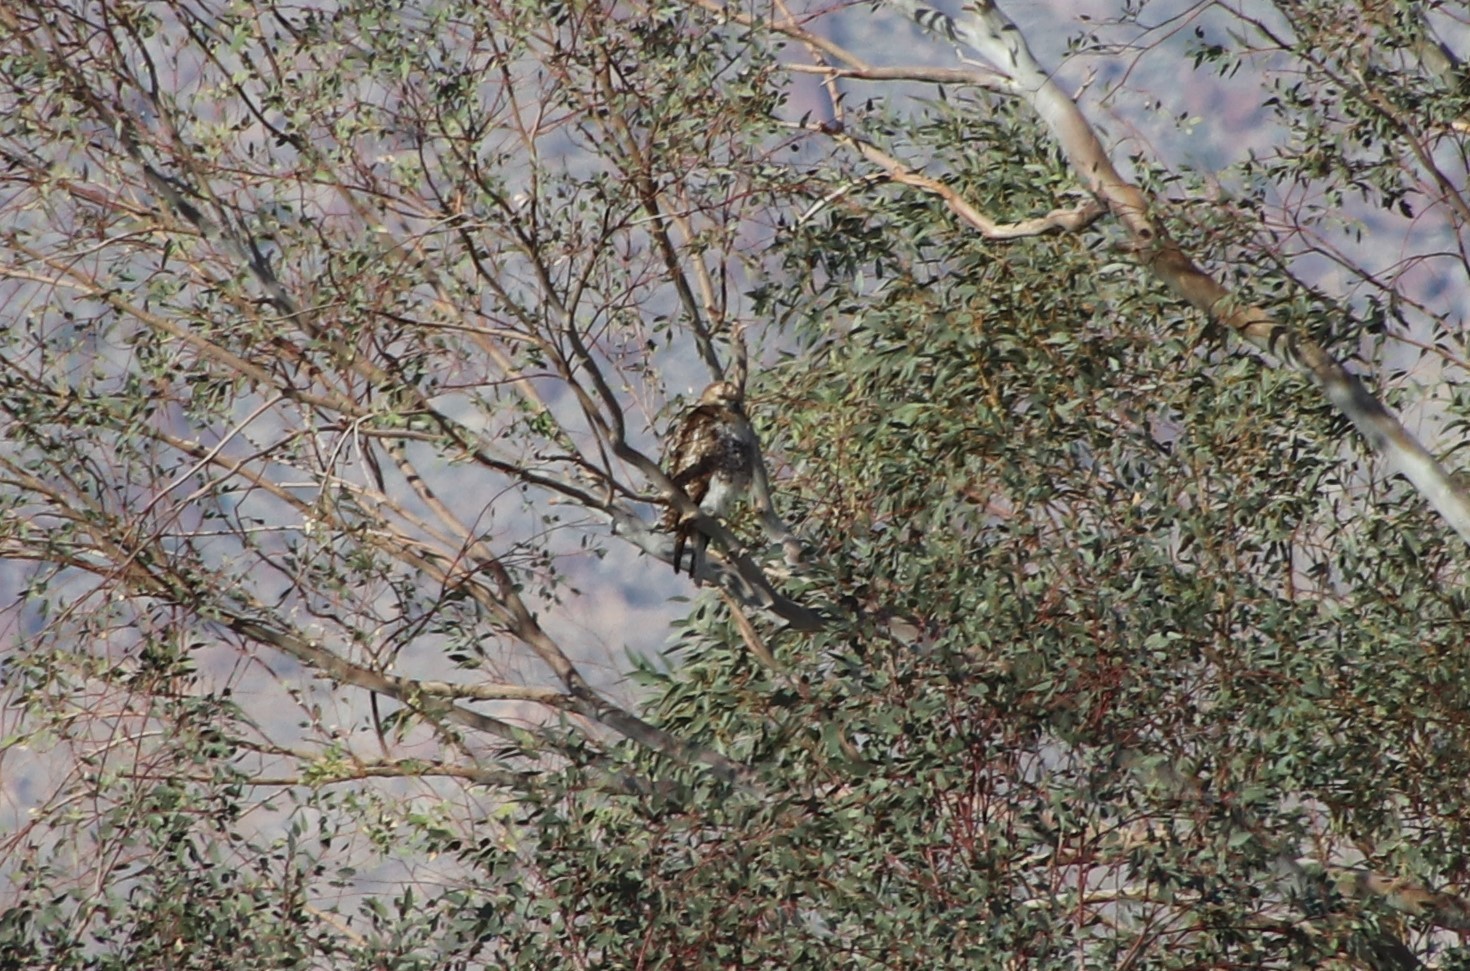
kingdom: Animalia
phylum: Chordata
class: Aves
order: Accipitriformes
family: Accipitridae
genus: Buteo
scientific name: Buteo jamaicensis
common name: Red-tailed hawk
